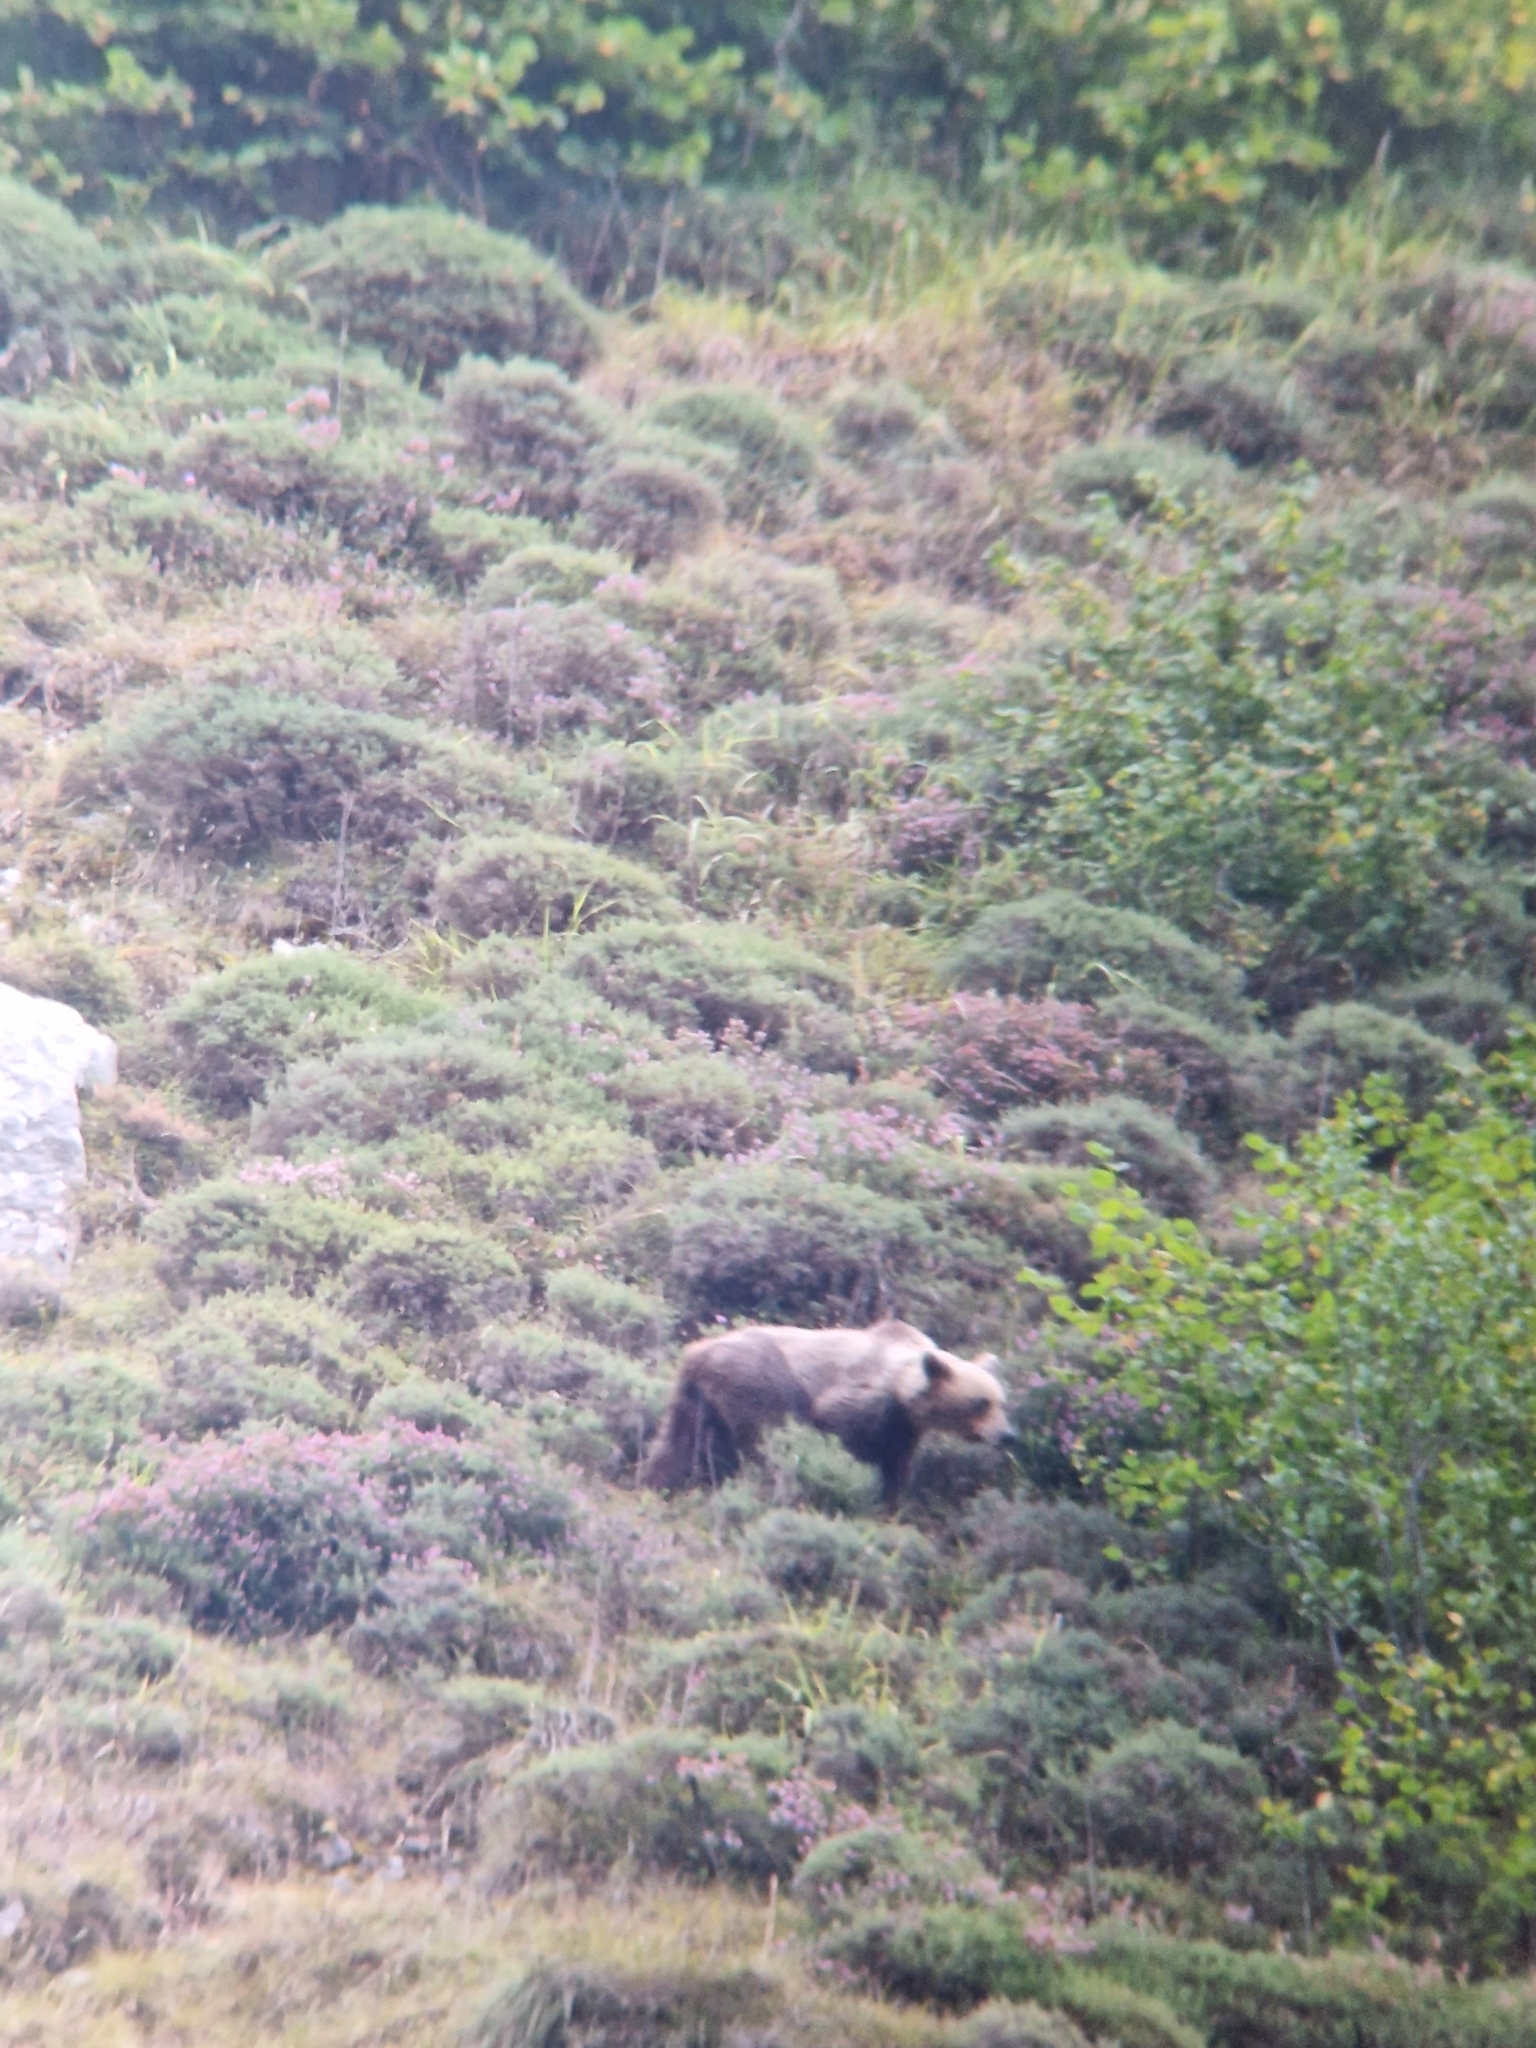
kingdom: Animalia
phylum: Chordata
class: Mammalia
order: Carnivora
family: Ursidae
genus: Ursus
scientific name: Ursus arctos
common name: Brown bear
